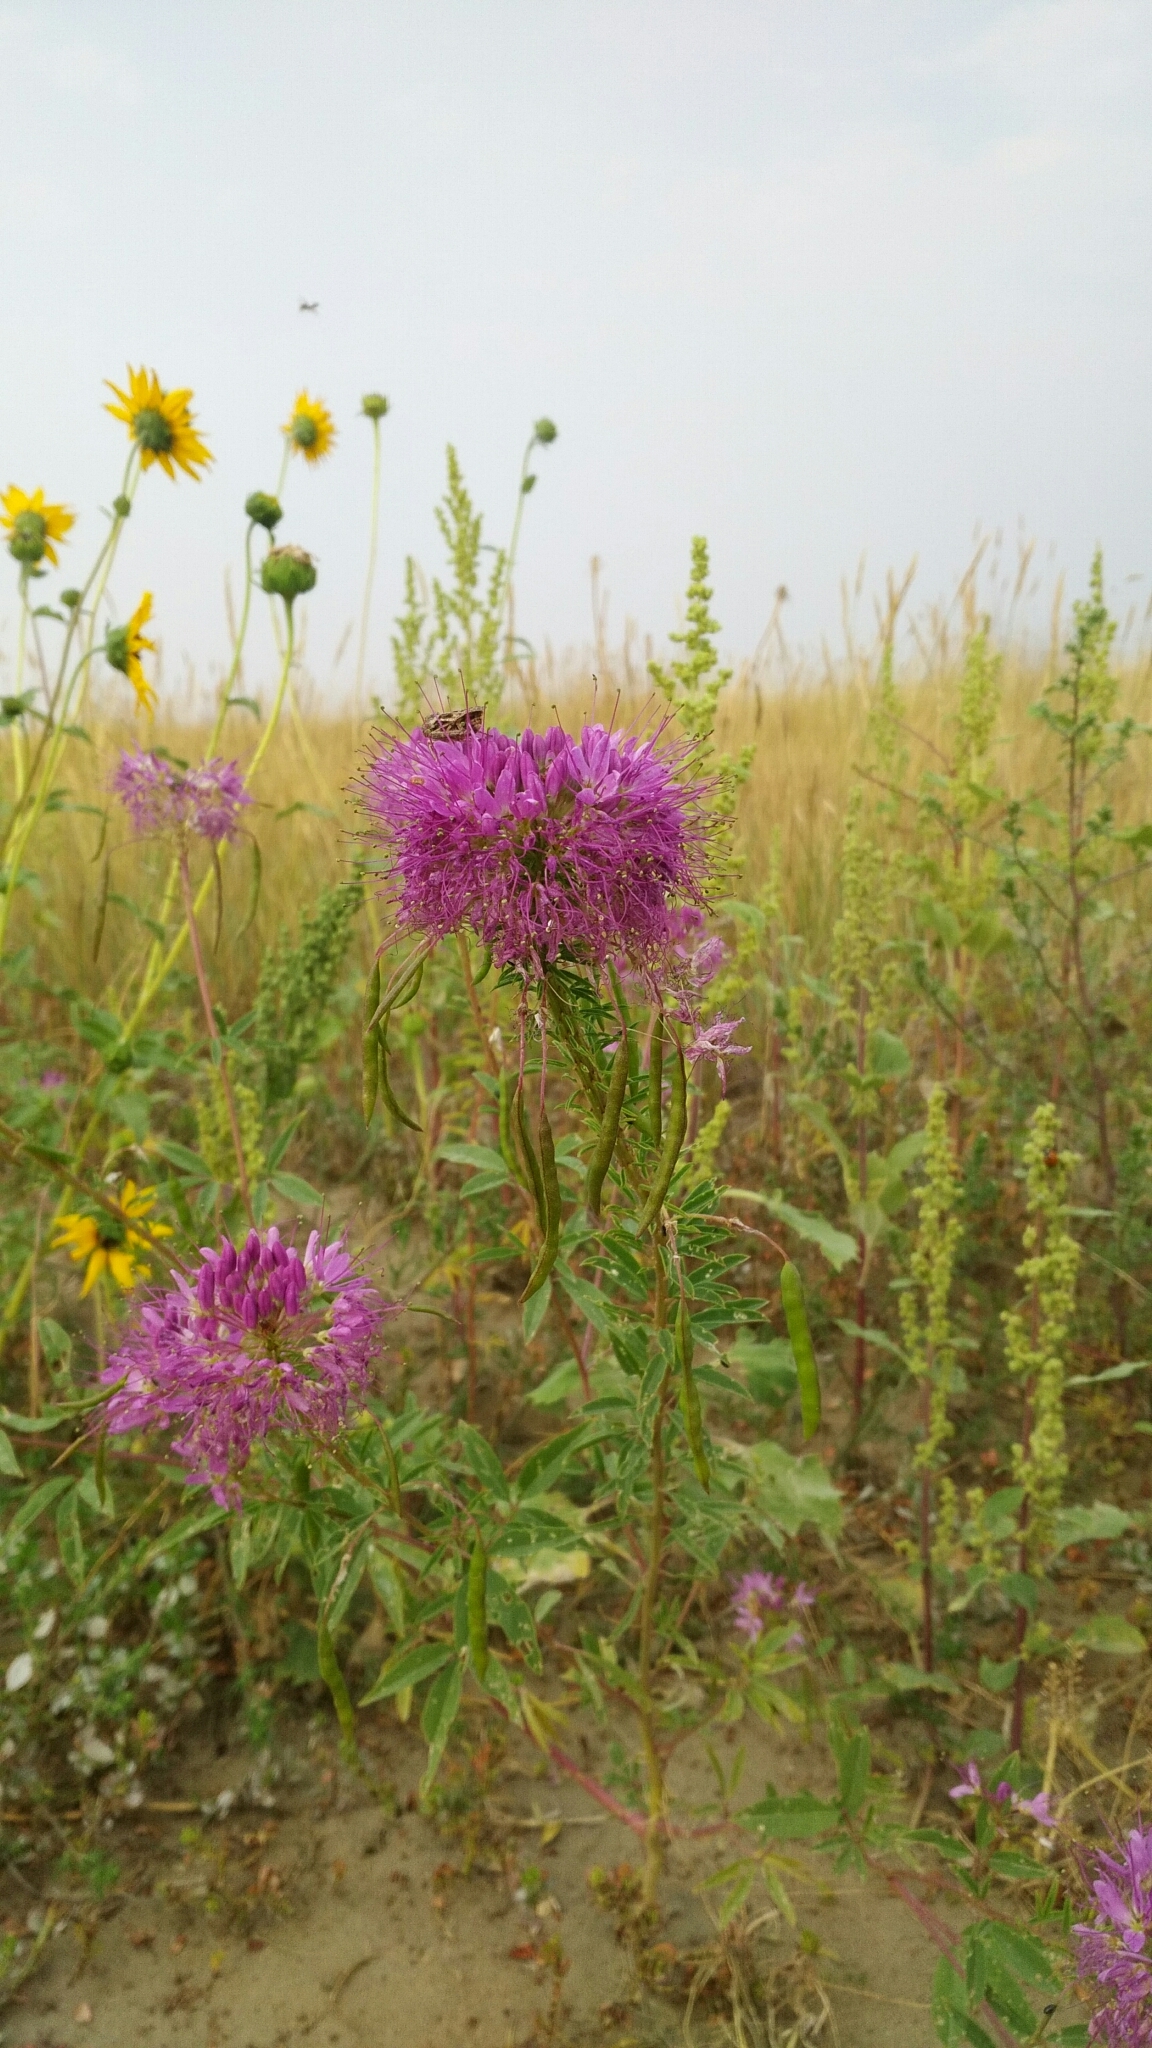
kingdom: Plantae
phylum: Tracheophyta
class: Magnoliopsida
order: Brassicales
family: Cleomaceae
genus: Cleomella
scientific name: Cleomella serrulata
